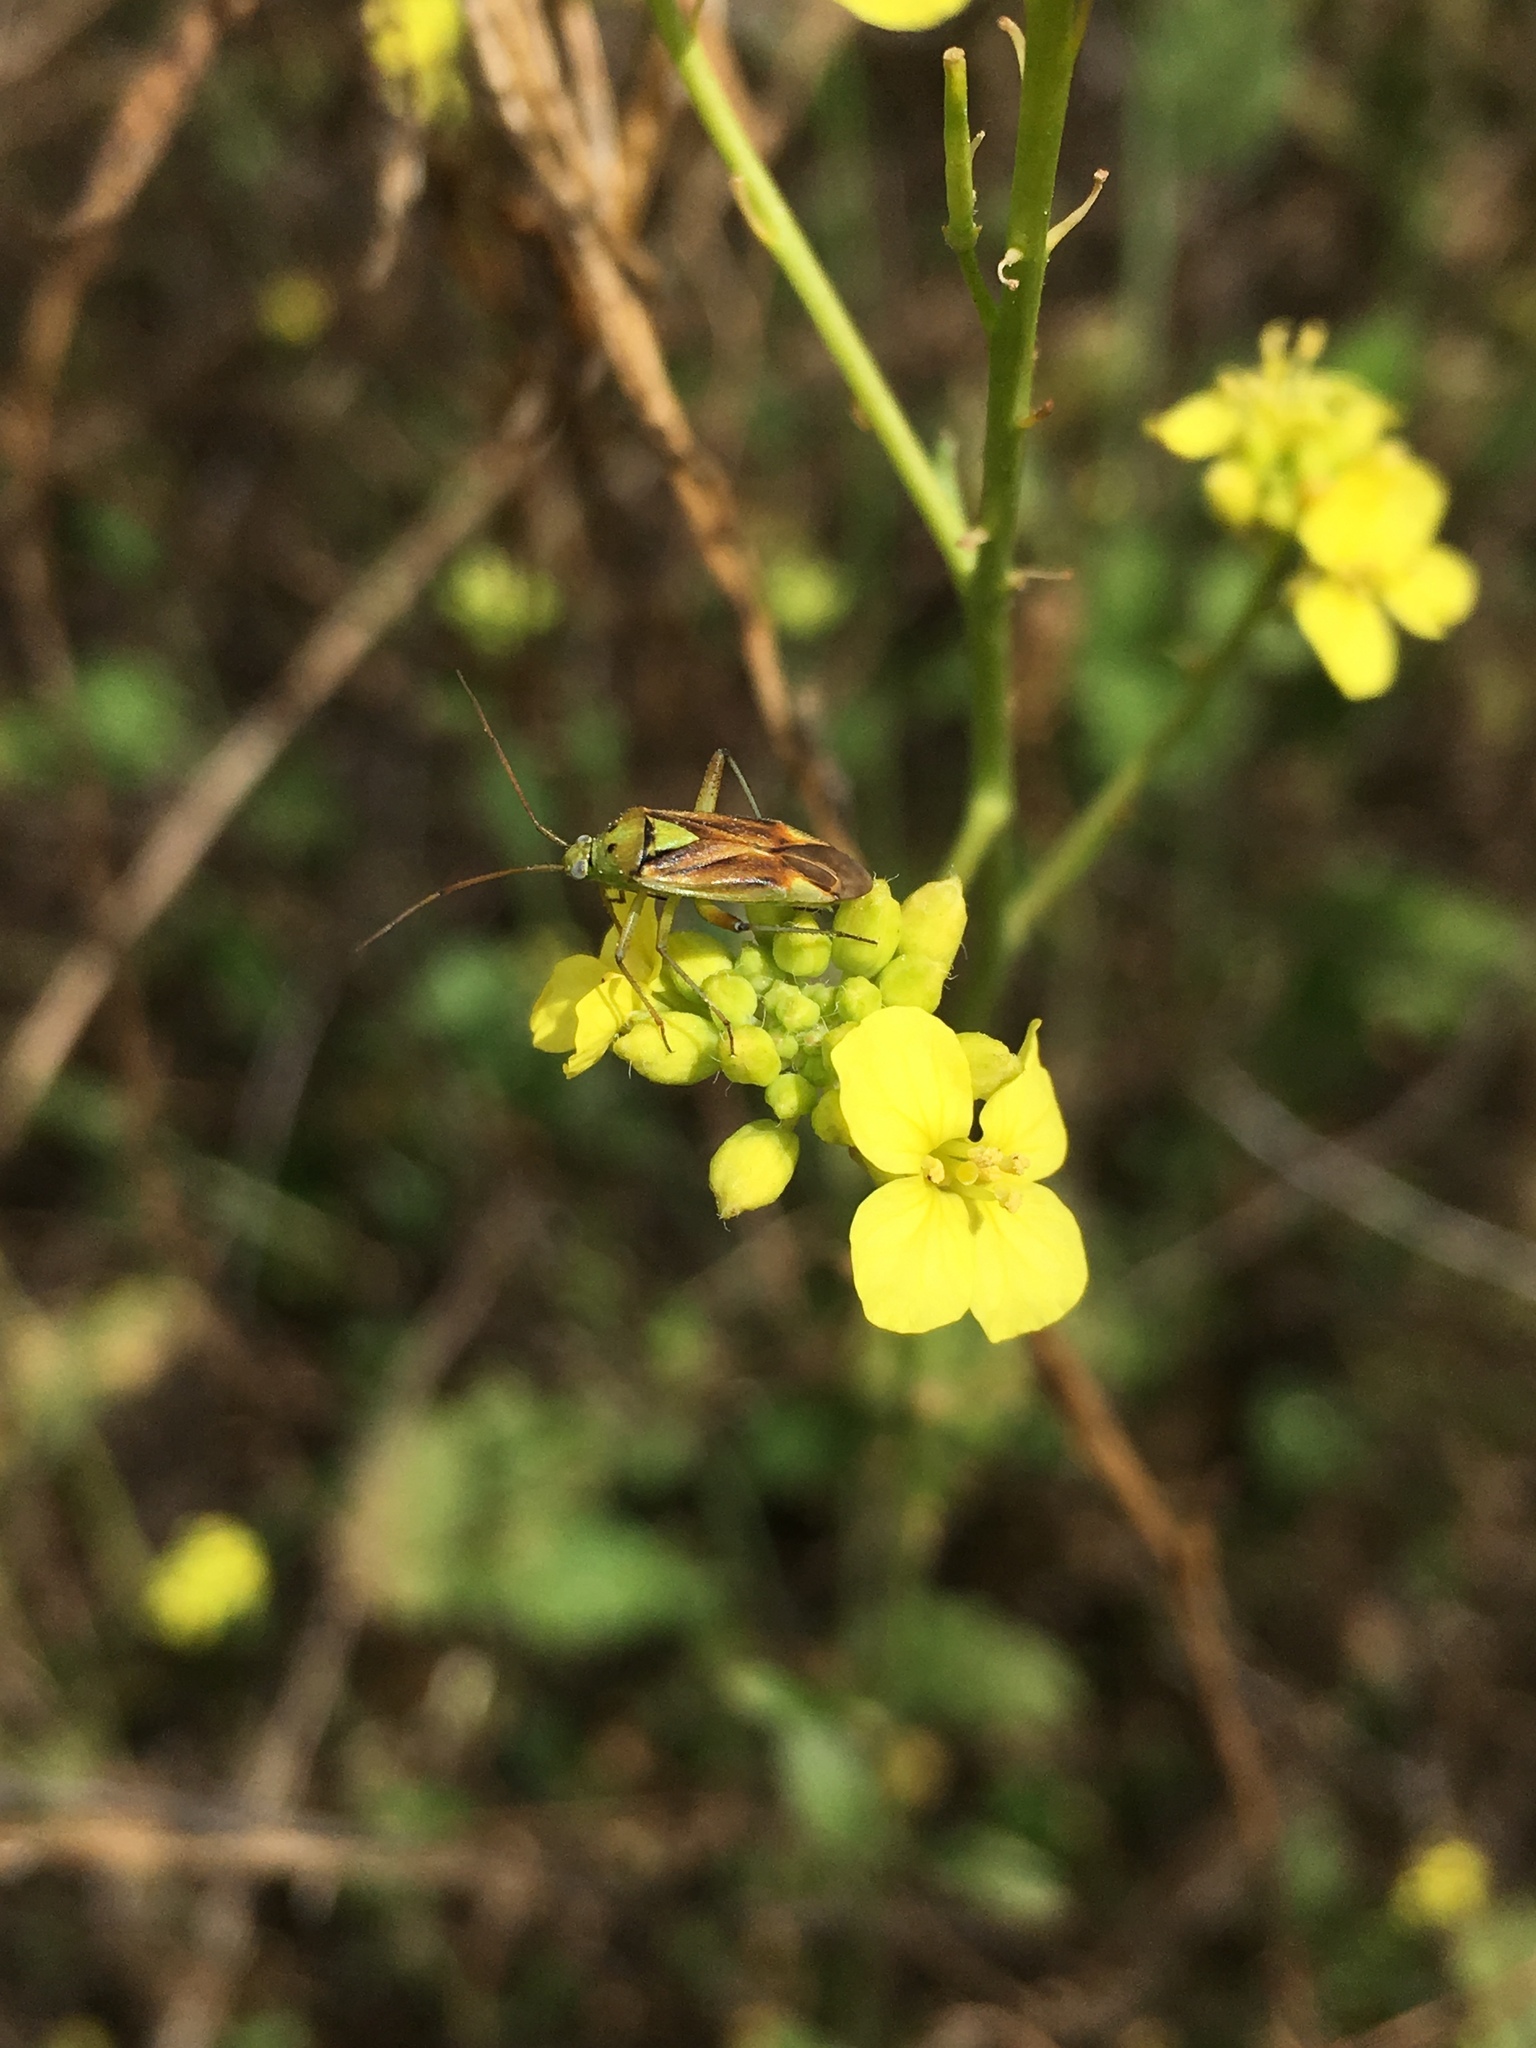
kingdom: Animalia
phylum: Arthropoda
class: Insecta
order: Hemiptera
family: Miridae
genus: Closterotomus
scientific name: Closterotomus norvegicus
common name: Plant bug
